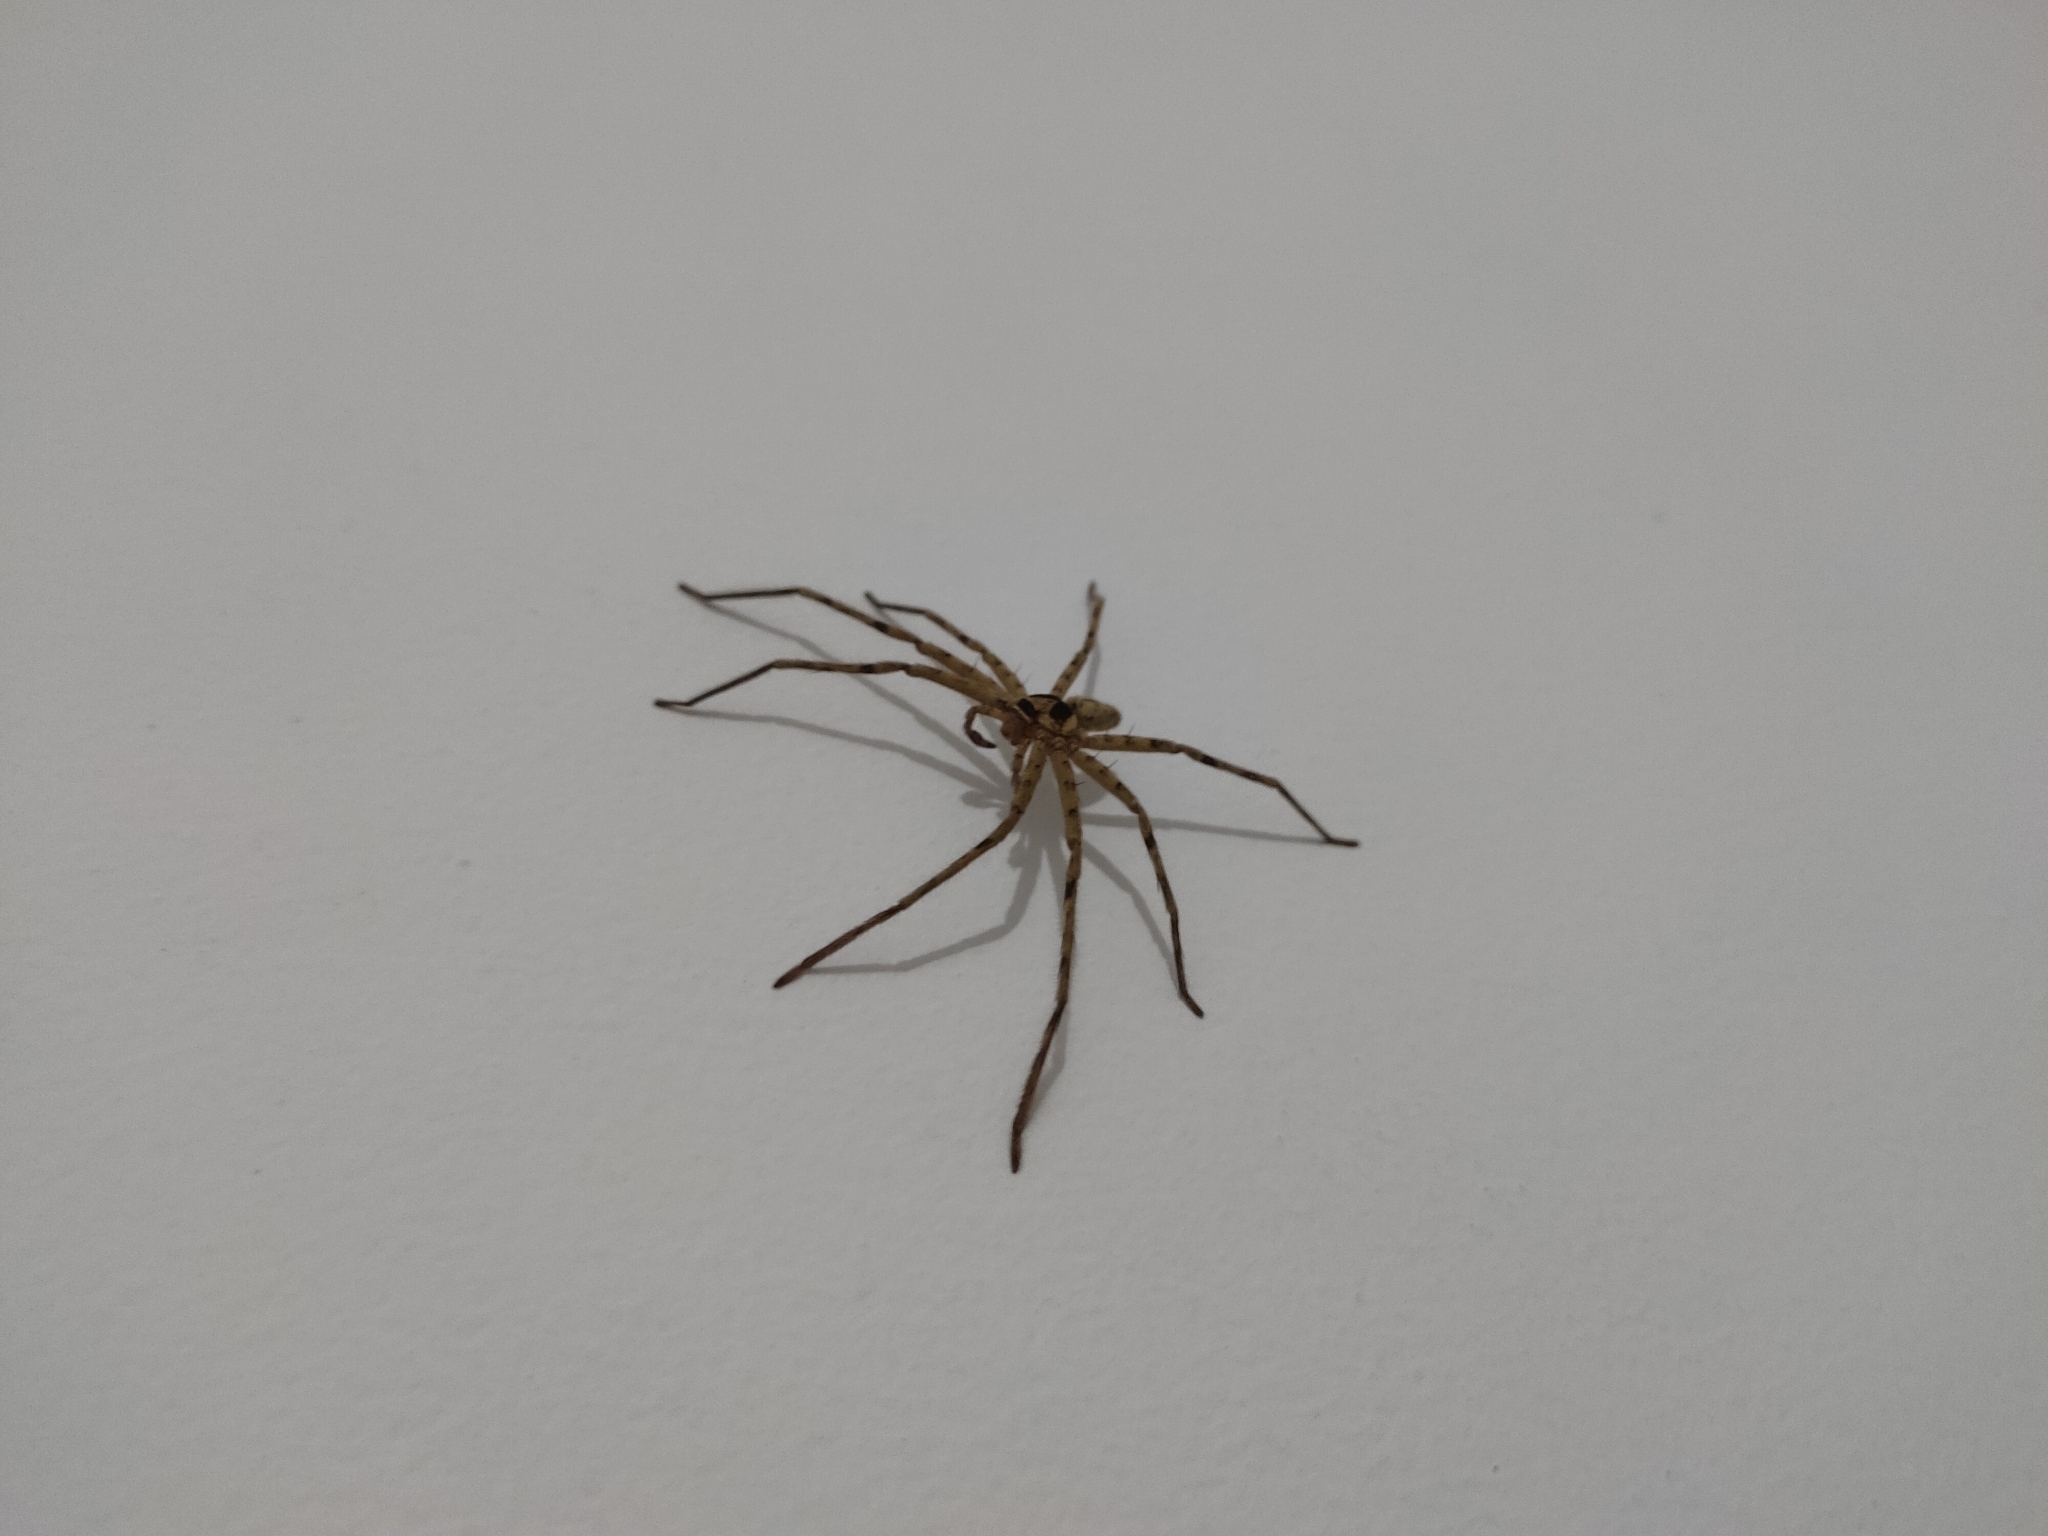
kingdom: Animalia
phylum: Arthropoda
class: Arachnida
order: Araneae
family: Sparassidae
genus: Heteropoda
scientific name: Heteropoda venatoria
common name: Huntsman spider
